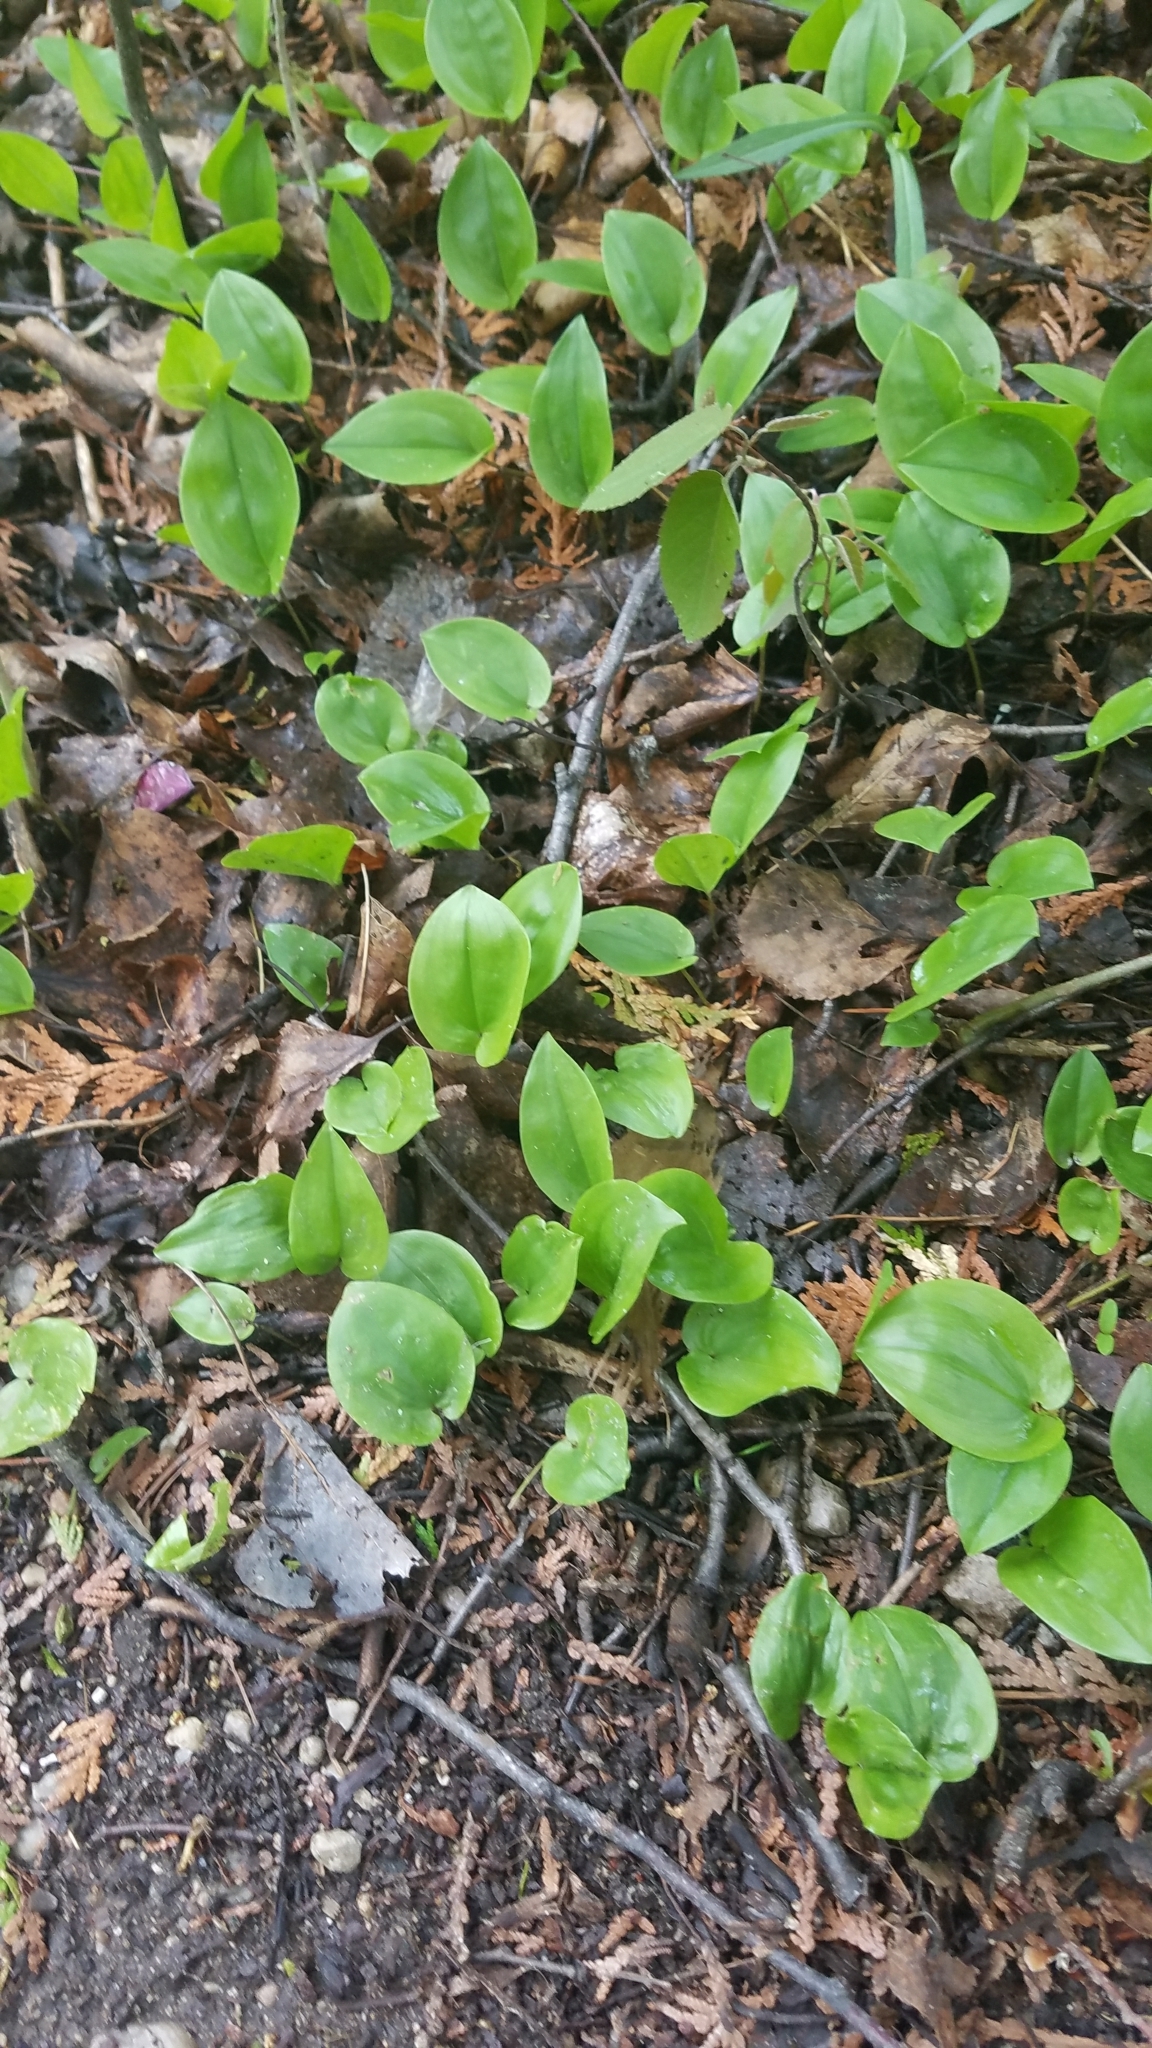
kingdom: Plantae
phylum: Tracheophyta
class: Liliopsida
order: Asparagales
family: Asparagaceae
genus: Maianthemum
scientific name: Maianthemum canadense
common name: False lily-of-the-valley
